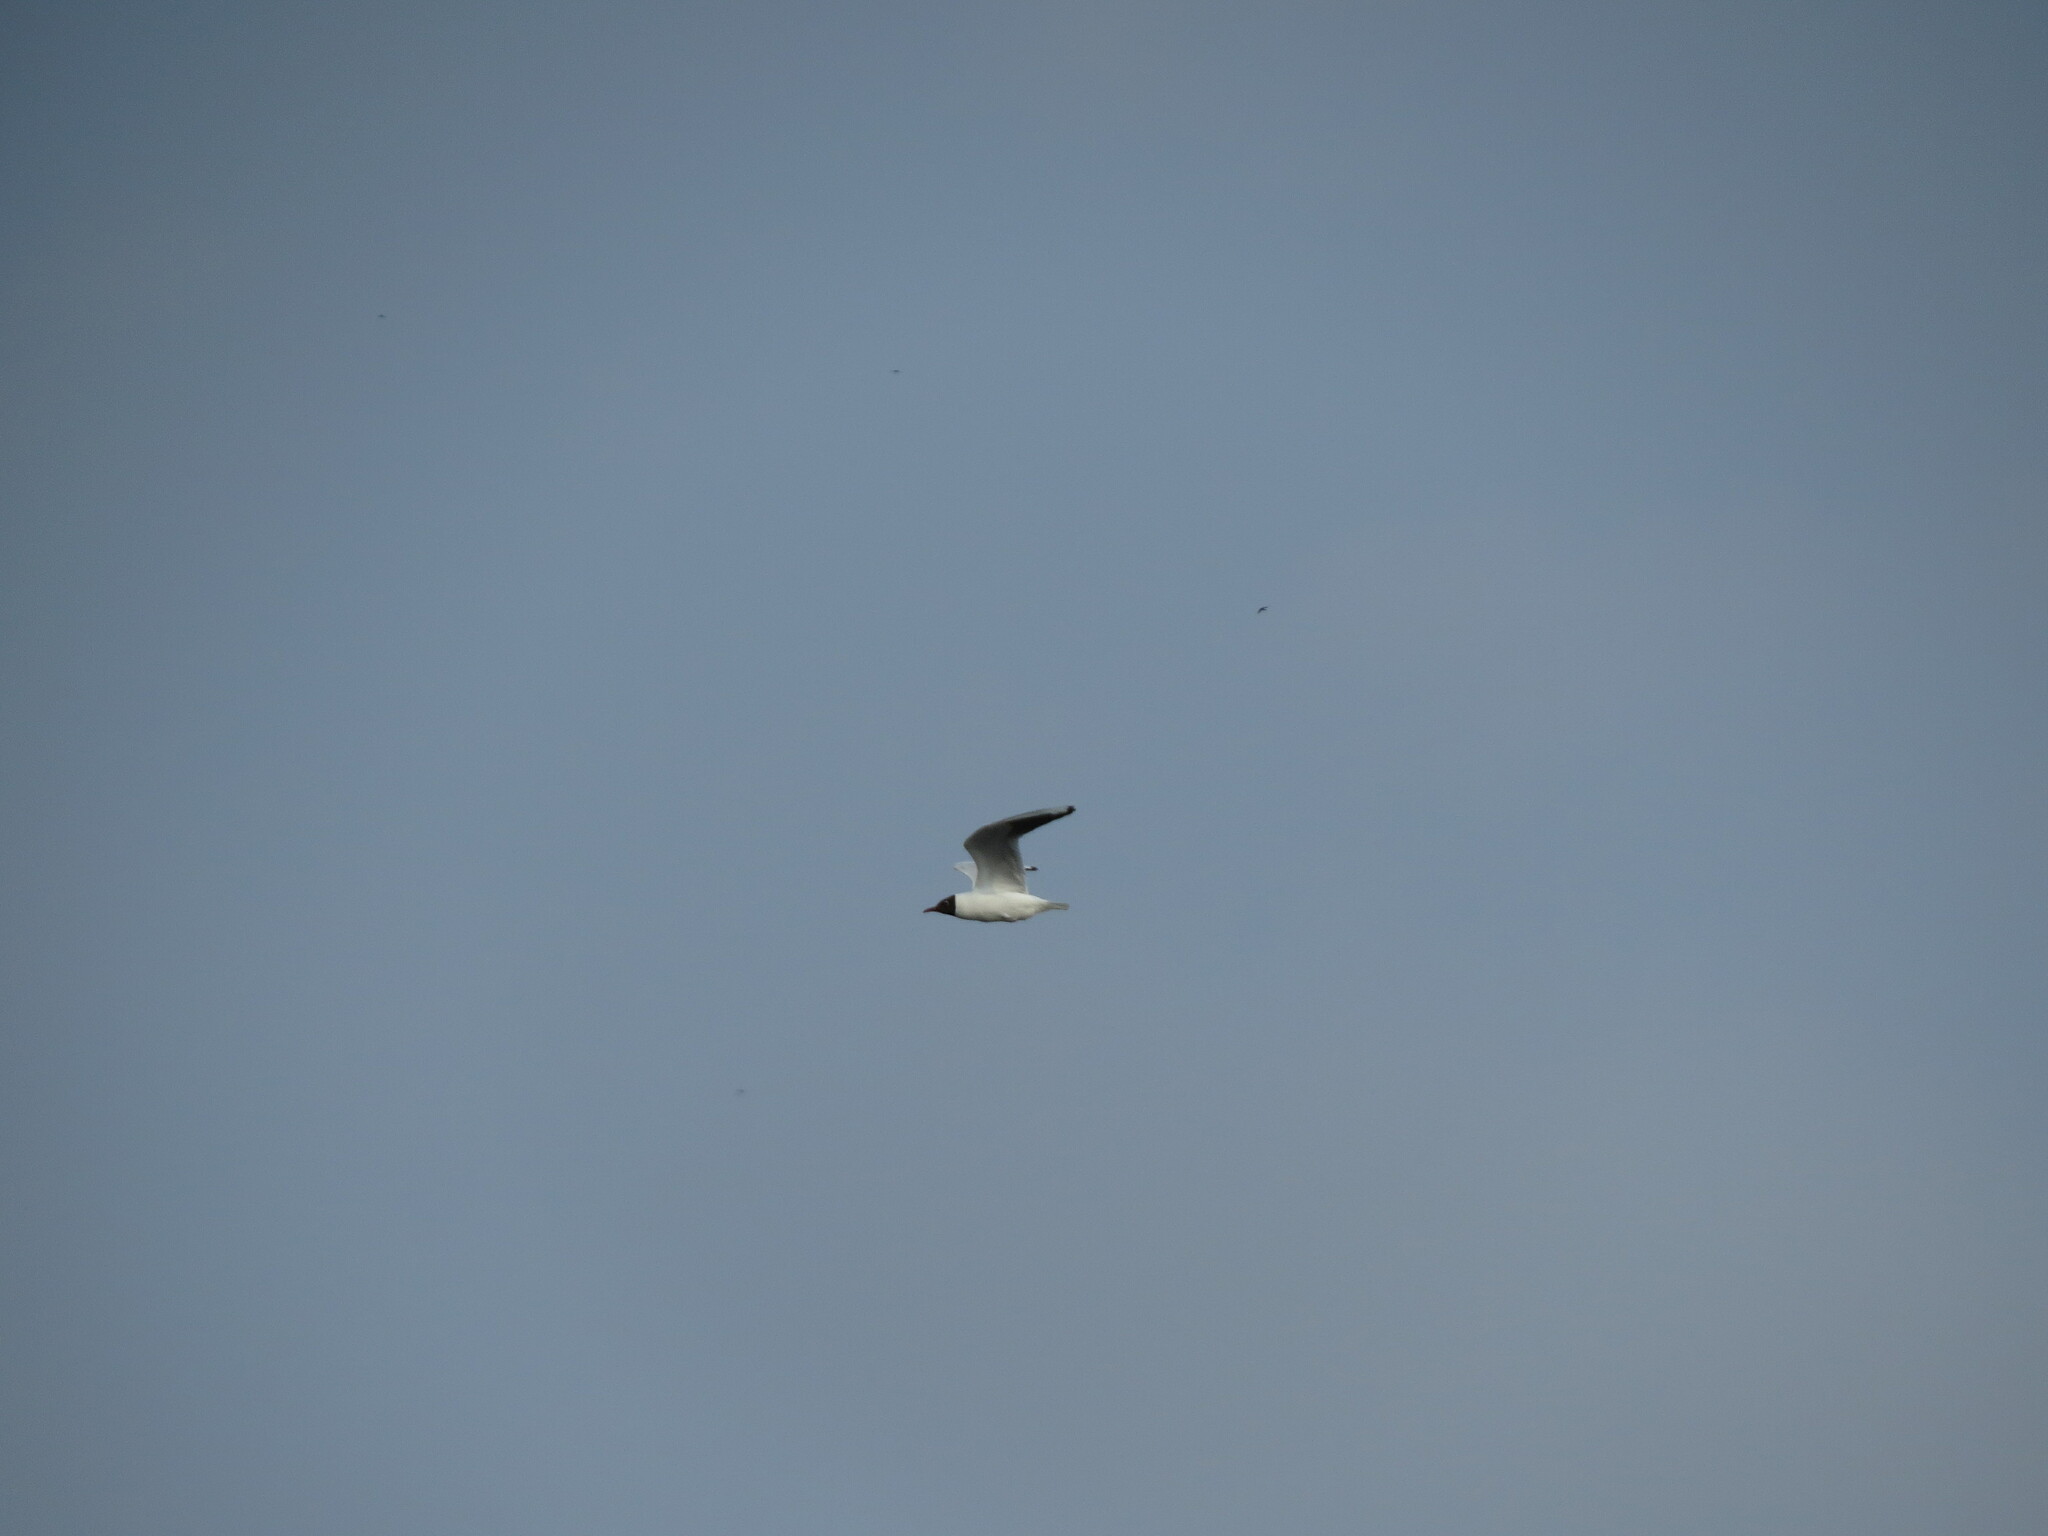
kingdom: Animalia
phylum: Chordata
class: Aves
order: Charadriiformes
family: Laridae
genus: Chroicocephalus
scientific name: Chroicocephalus ridibundus
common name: Black-headed gull
